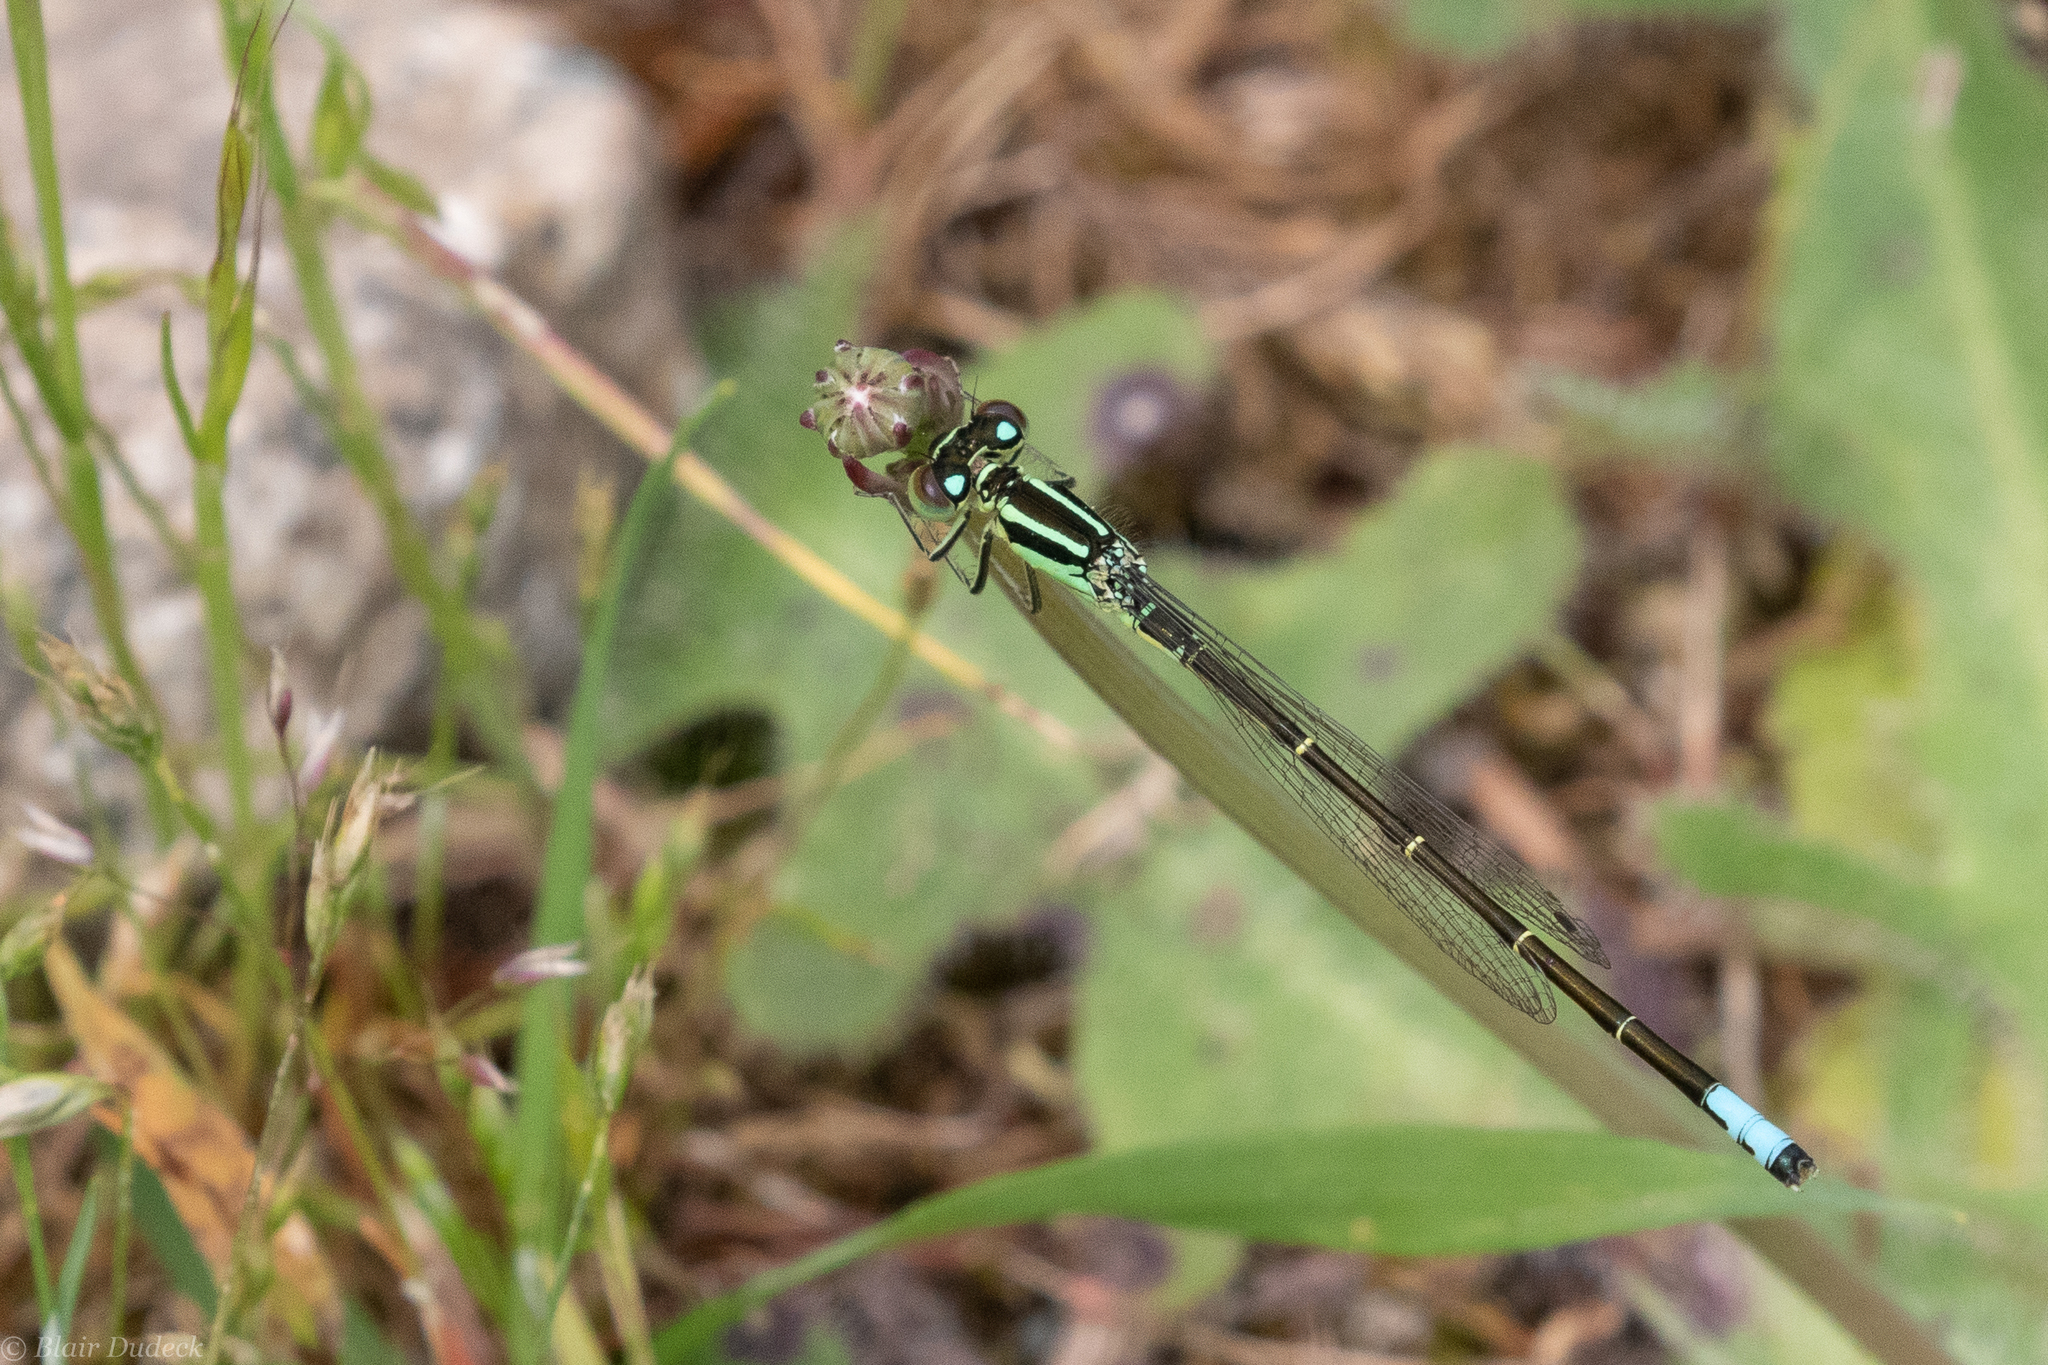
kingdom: Animalia
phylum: Arthropoda
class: Insecta
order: Odonata
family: Coenagrionidae
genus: Ischnura
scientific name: Ischnura perparva
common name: Western forktail
